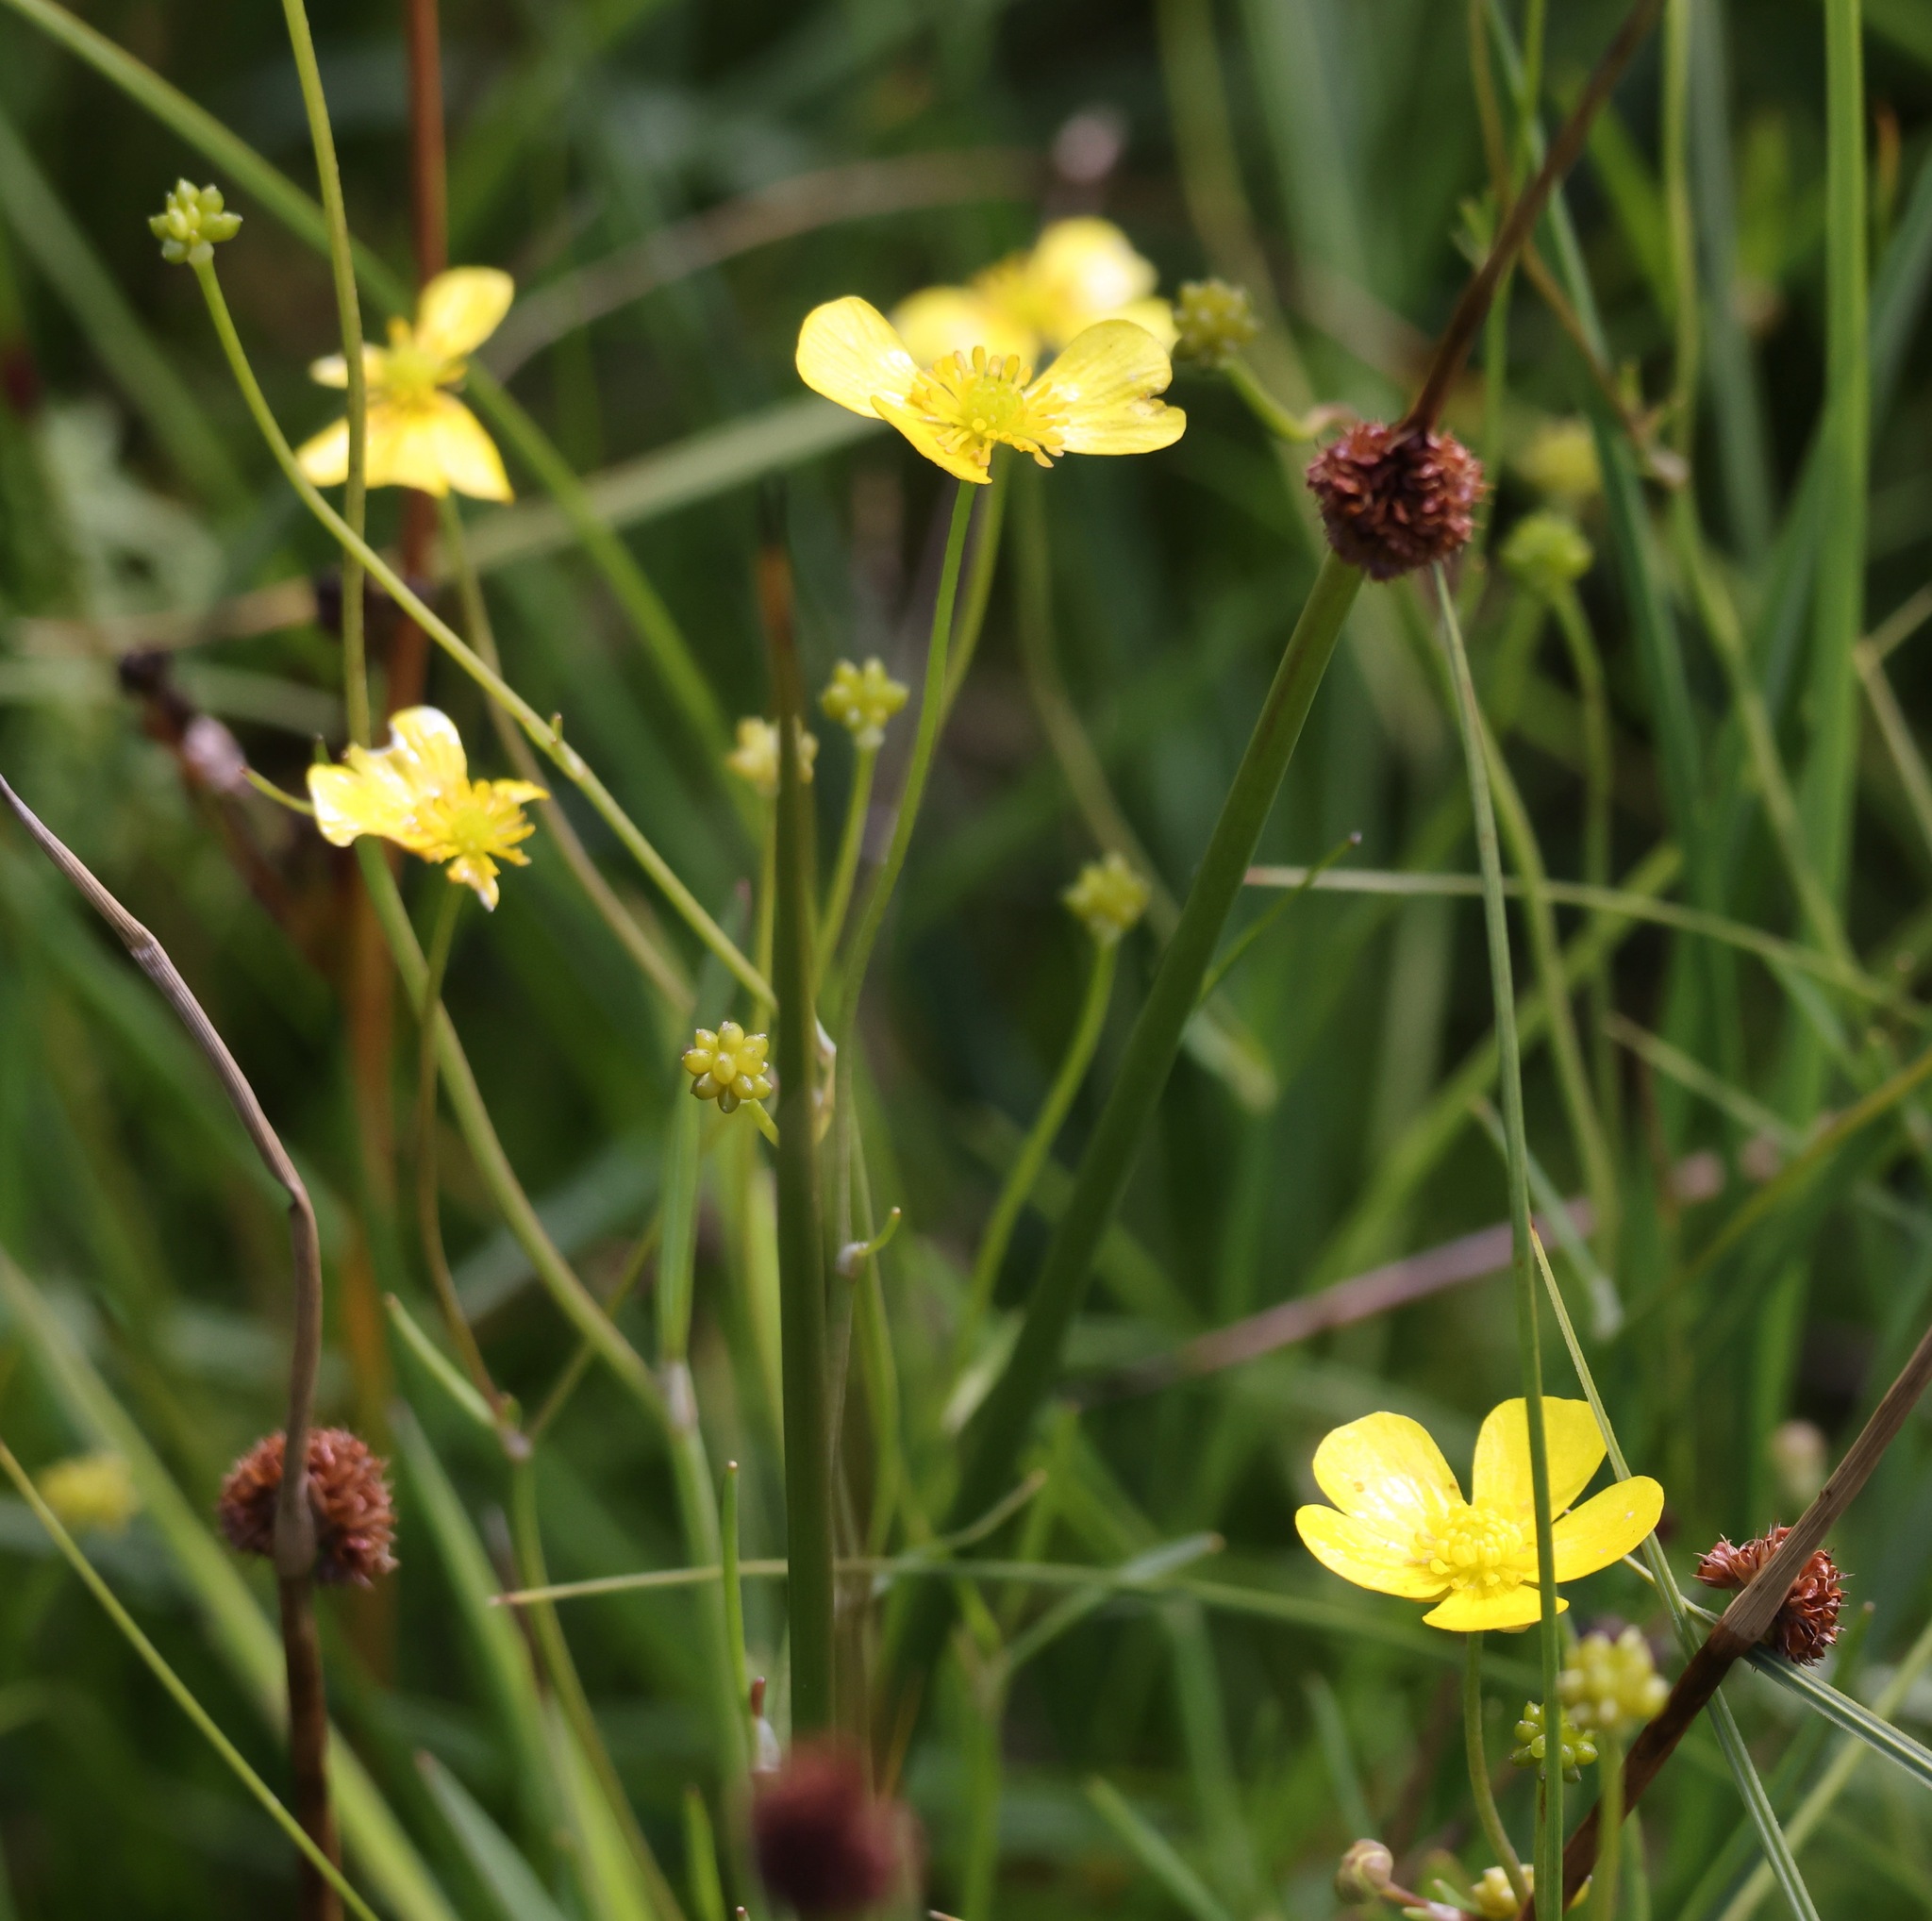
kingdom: Plantae
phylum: Tracheophyta
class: Magnoliopsida
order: Ranunculales
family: Ranunculaceae
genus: Ranunculus
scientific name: Ranunculus flammula
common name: Lesser spearwort
